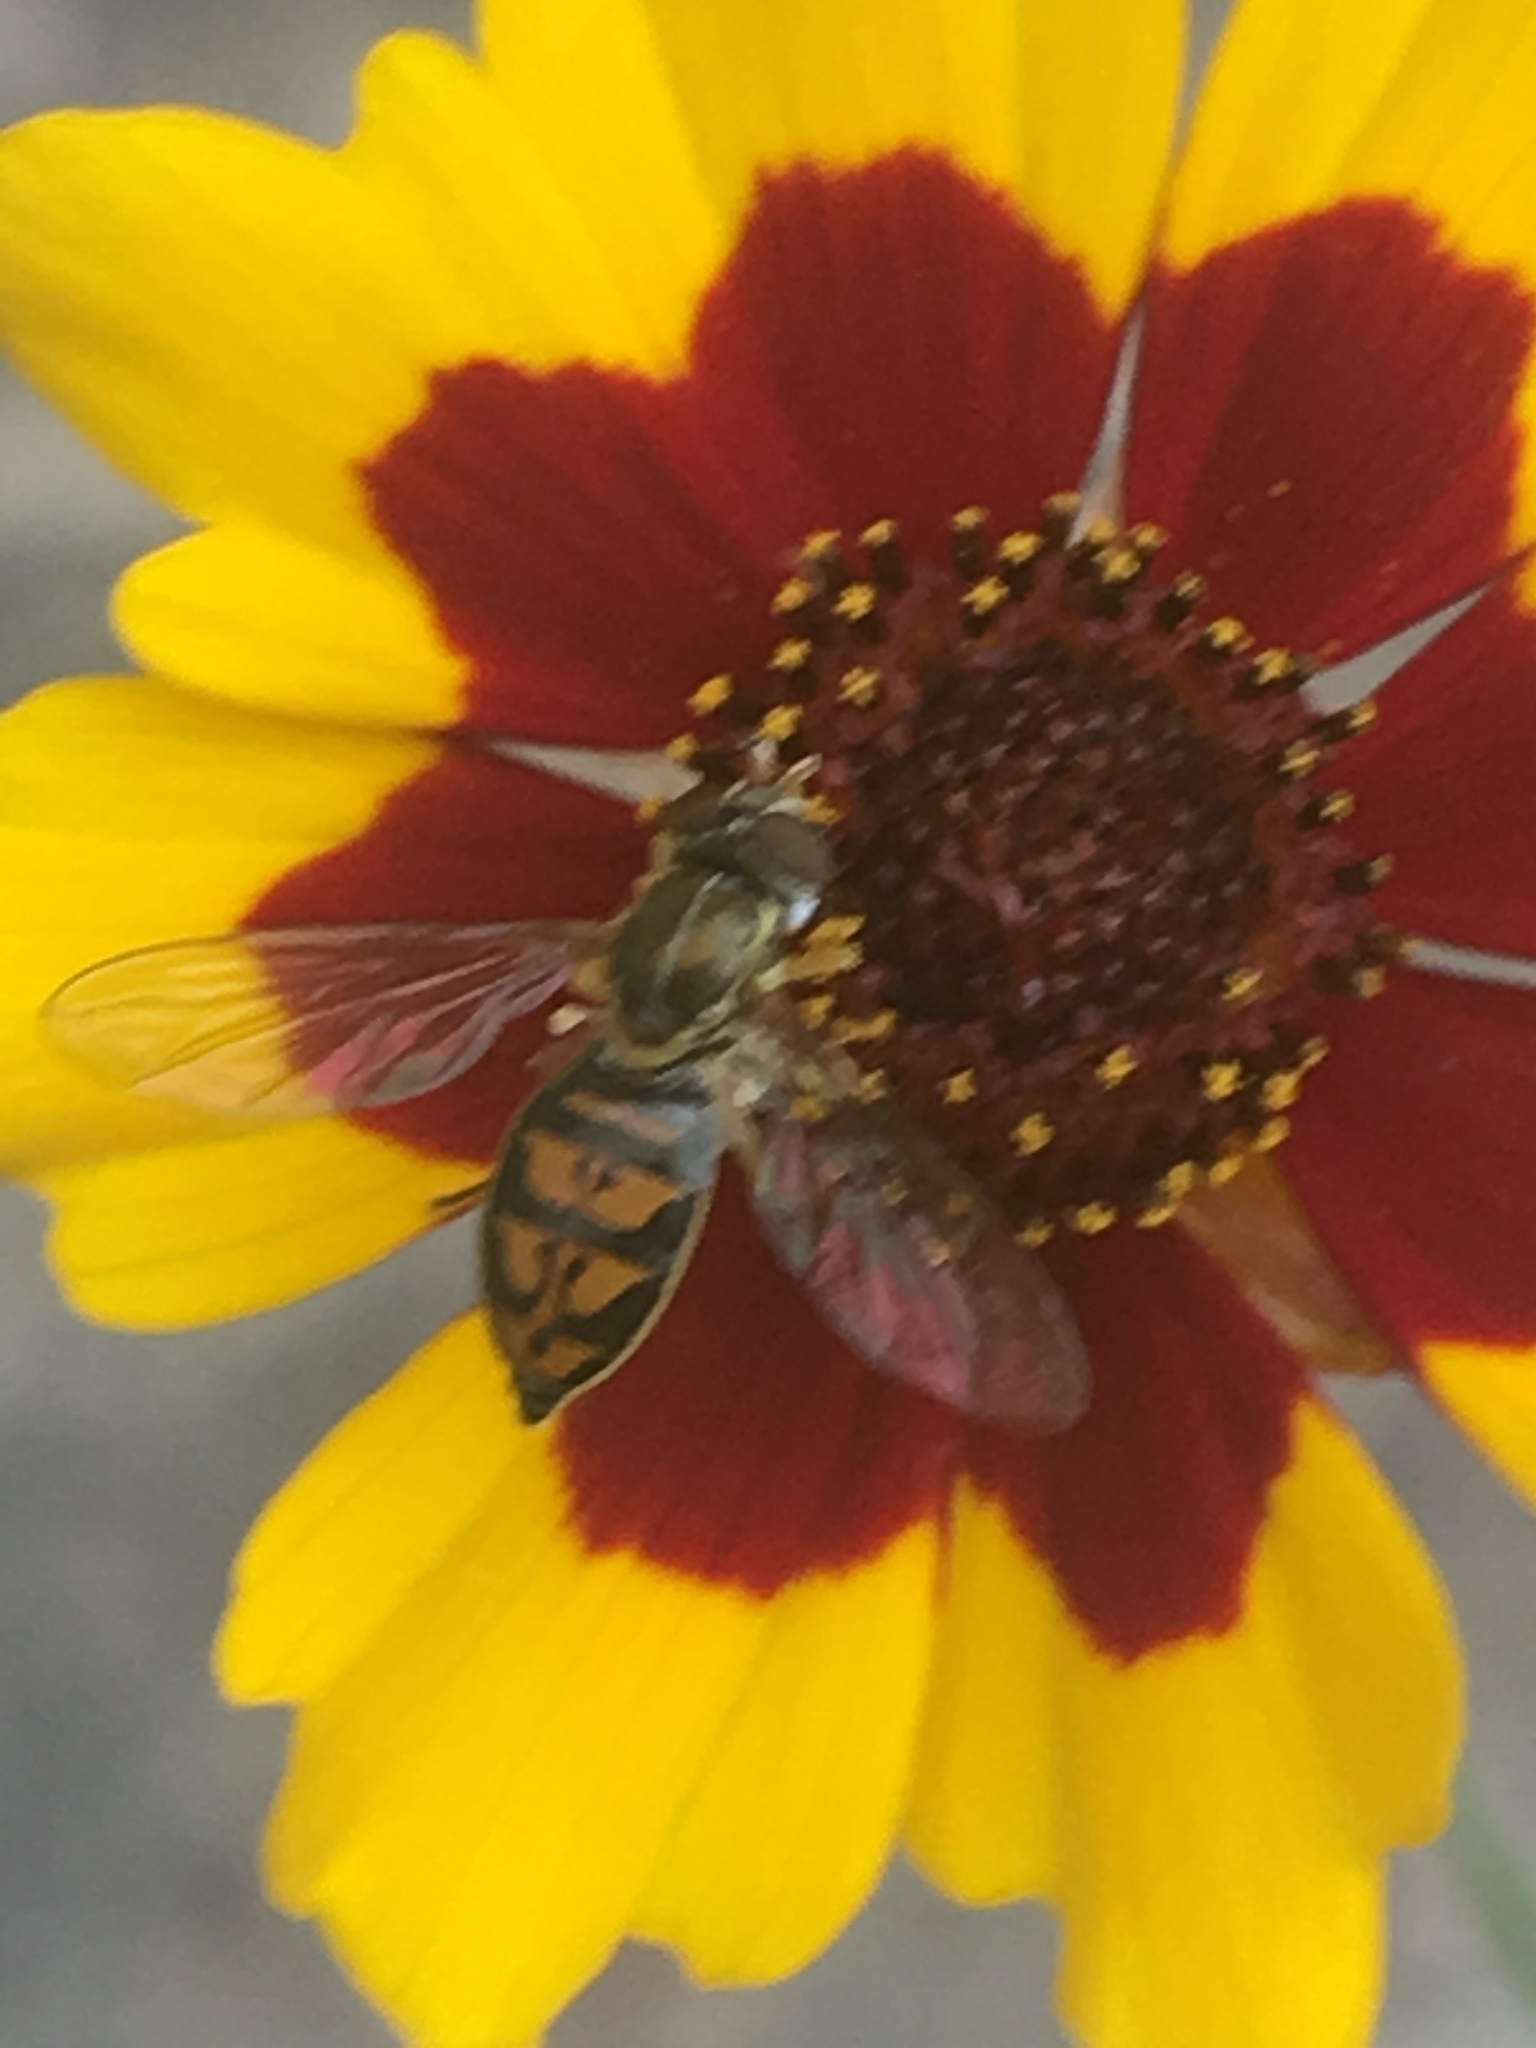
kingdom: Animalia
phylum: Arthropoda
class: Insecta
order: Diptera
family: Syrphidae
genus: Toxomerus
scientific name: Toxomerus marginatus
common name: Syrphid fly
